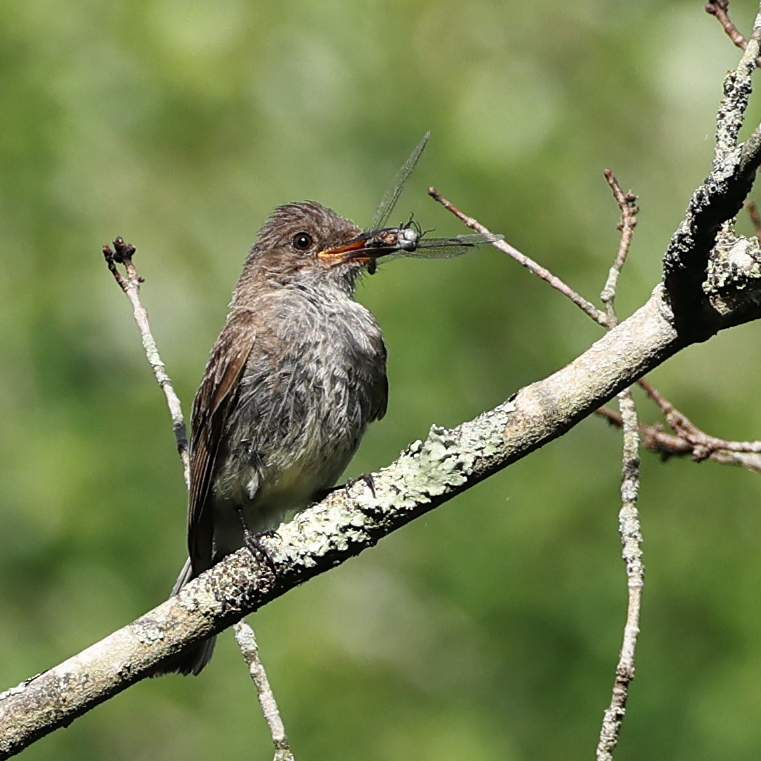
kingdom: Animalia
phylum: Chordata
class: Aves
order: Passeriformes
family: Tyrannidae
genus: Contopus
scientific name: Contopus virens
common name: Eastern wood-pewee
